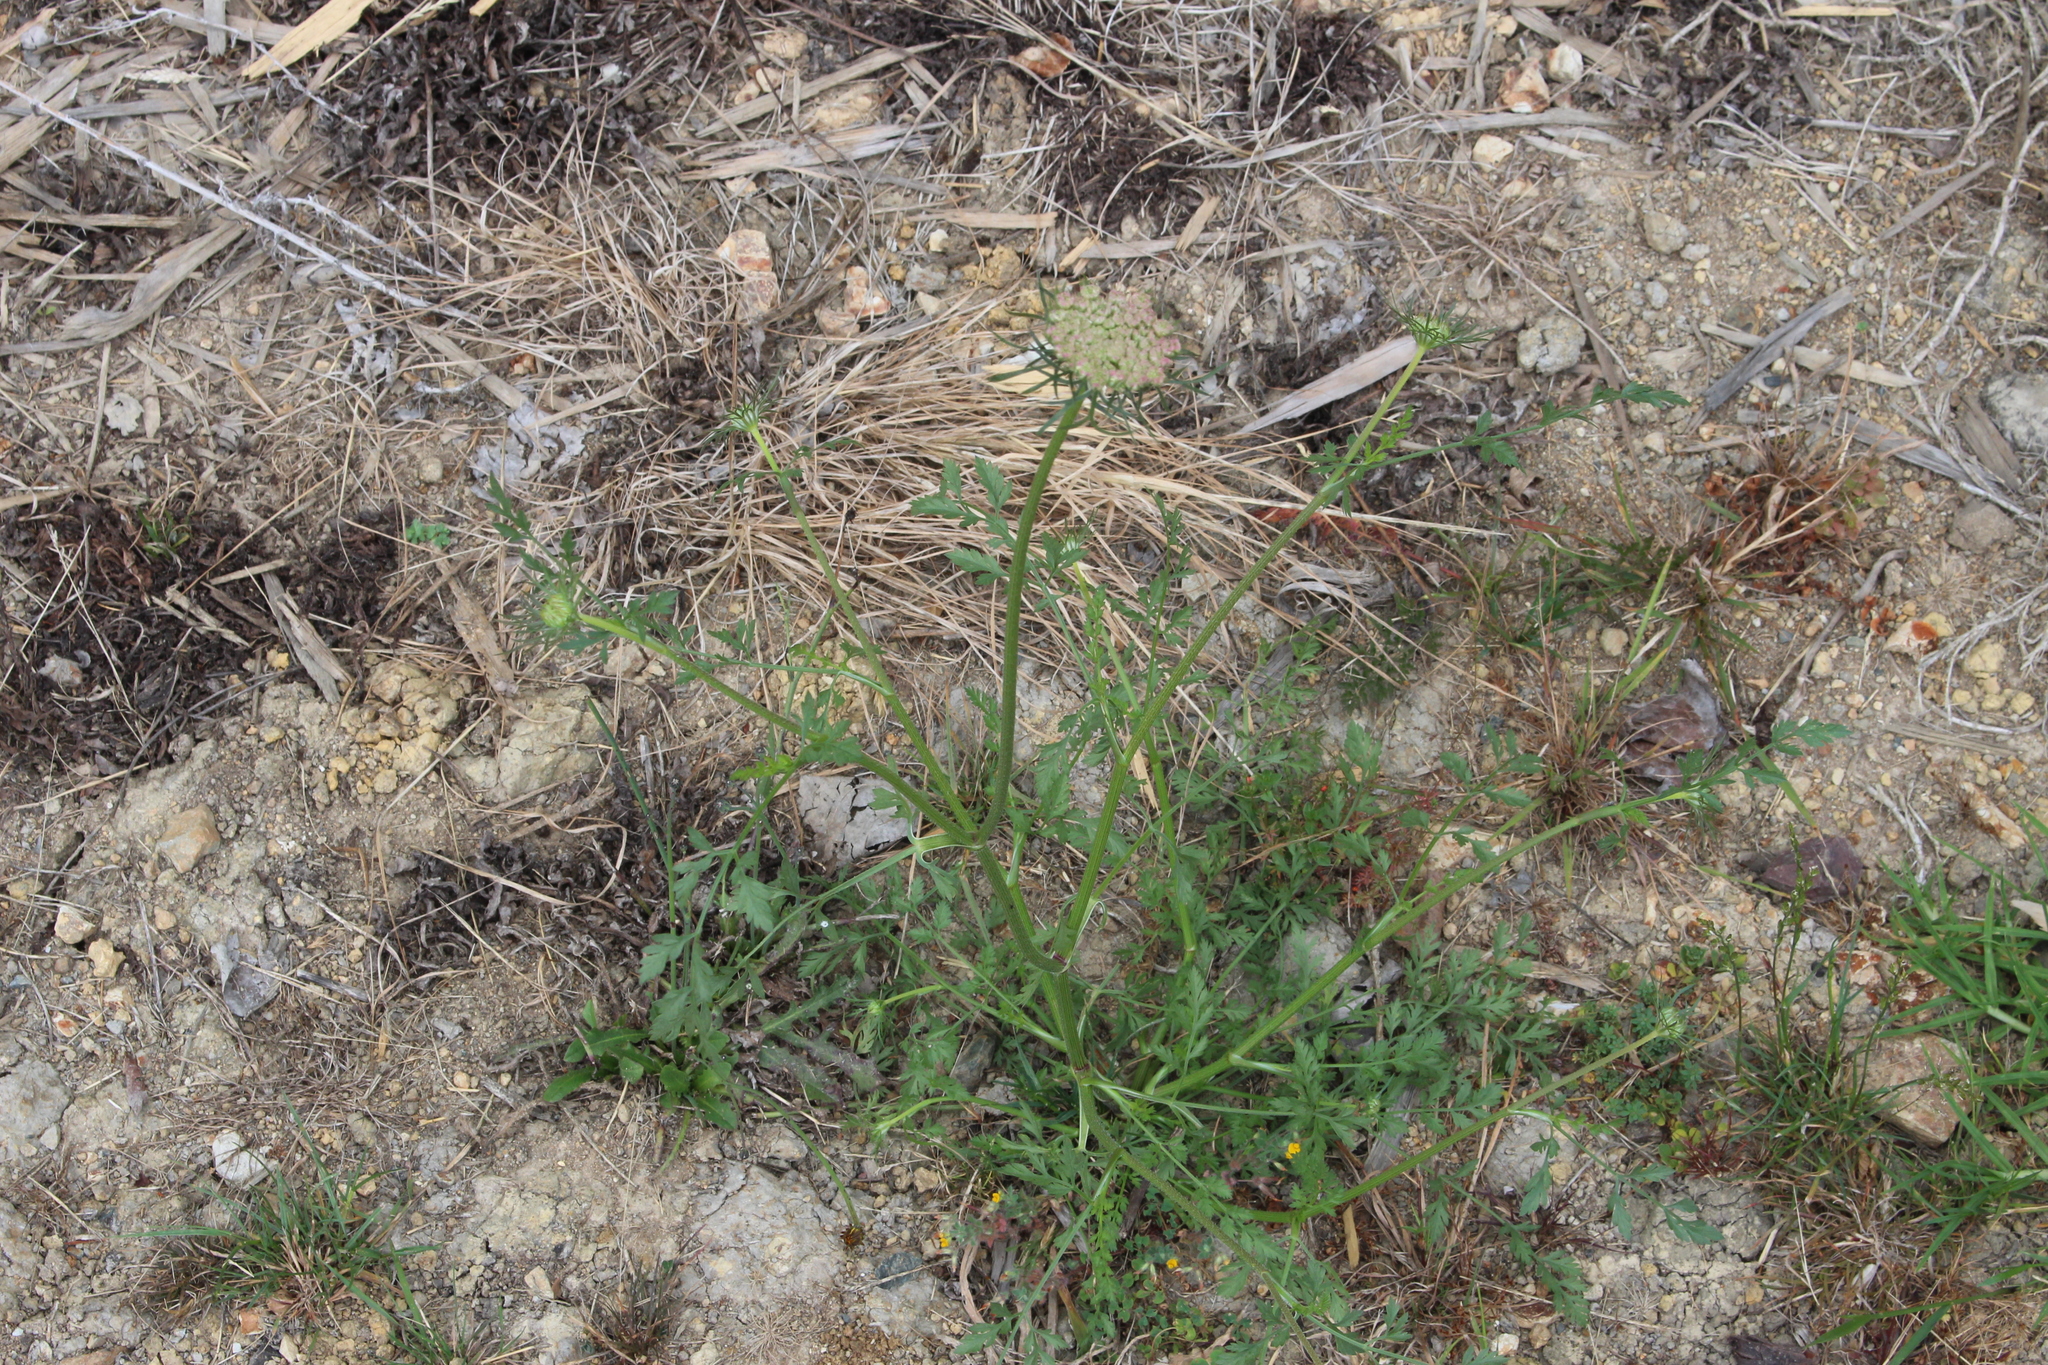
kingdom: Plantae
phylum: Tracheophyta
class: Magnoliopsida
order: Apiales
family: Apiaceae
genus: Daucus
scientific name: Daucus carota
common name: Wild carrot
